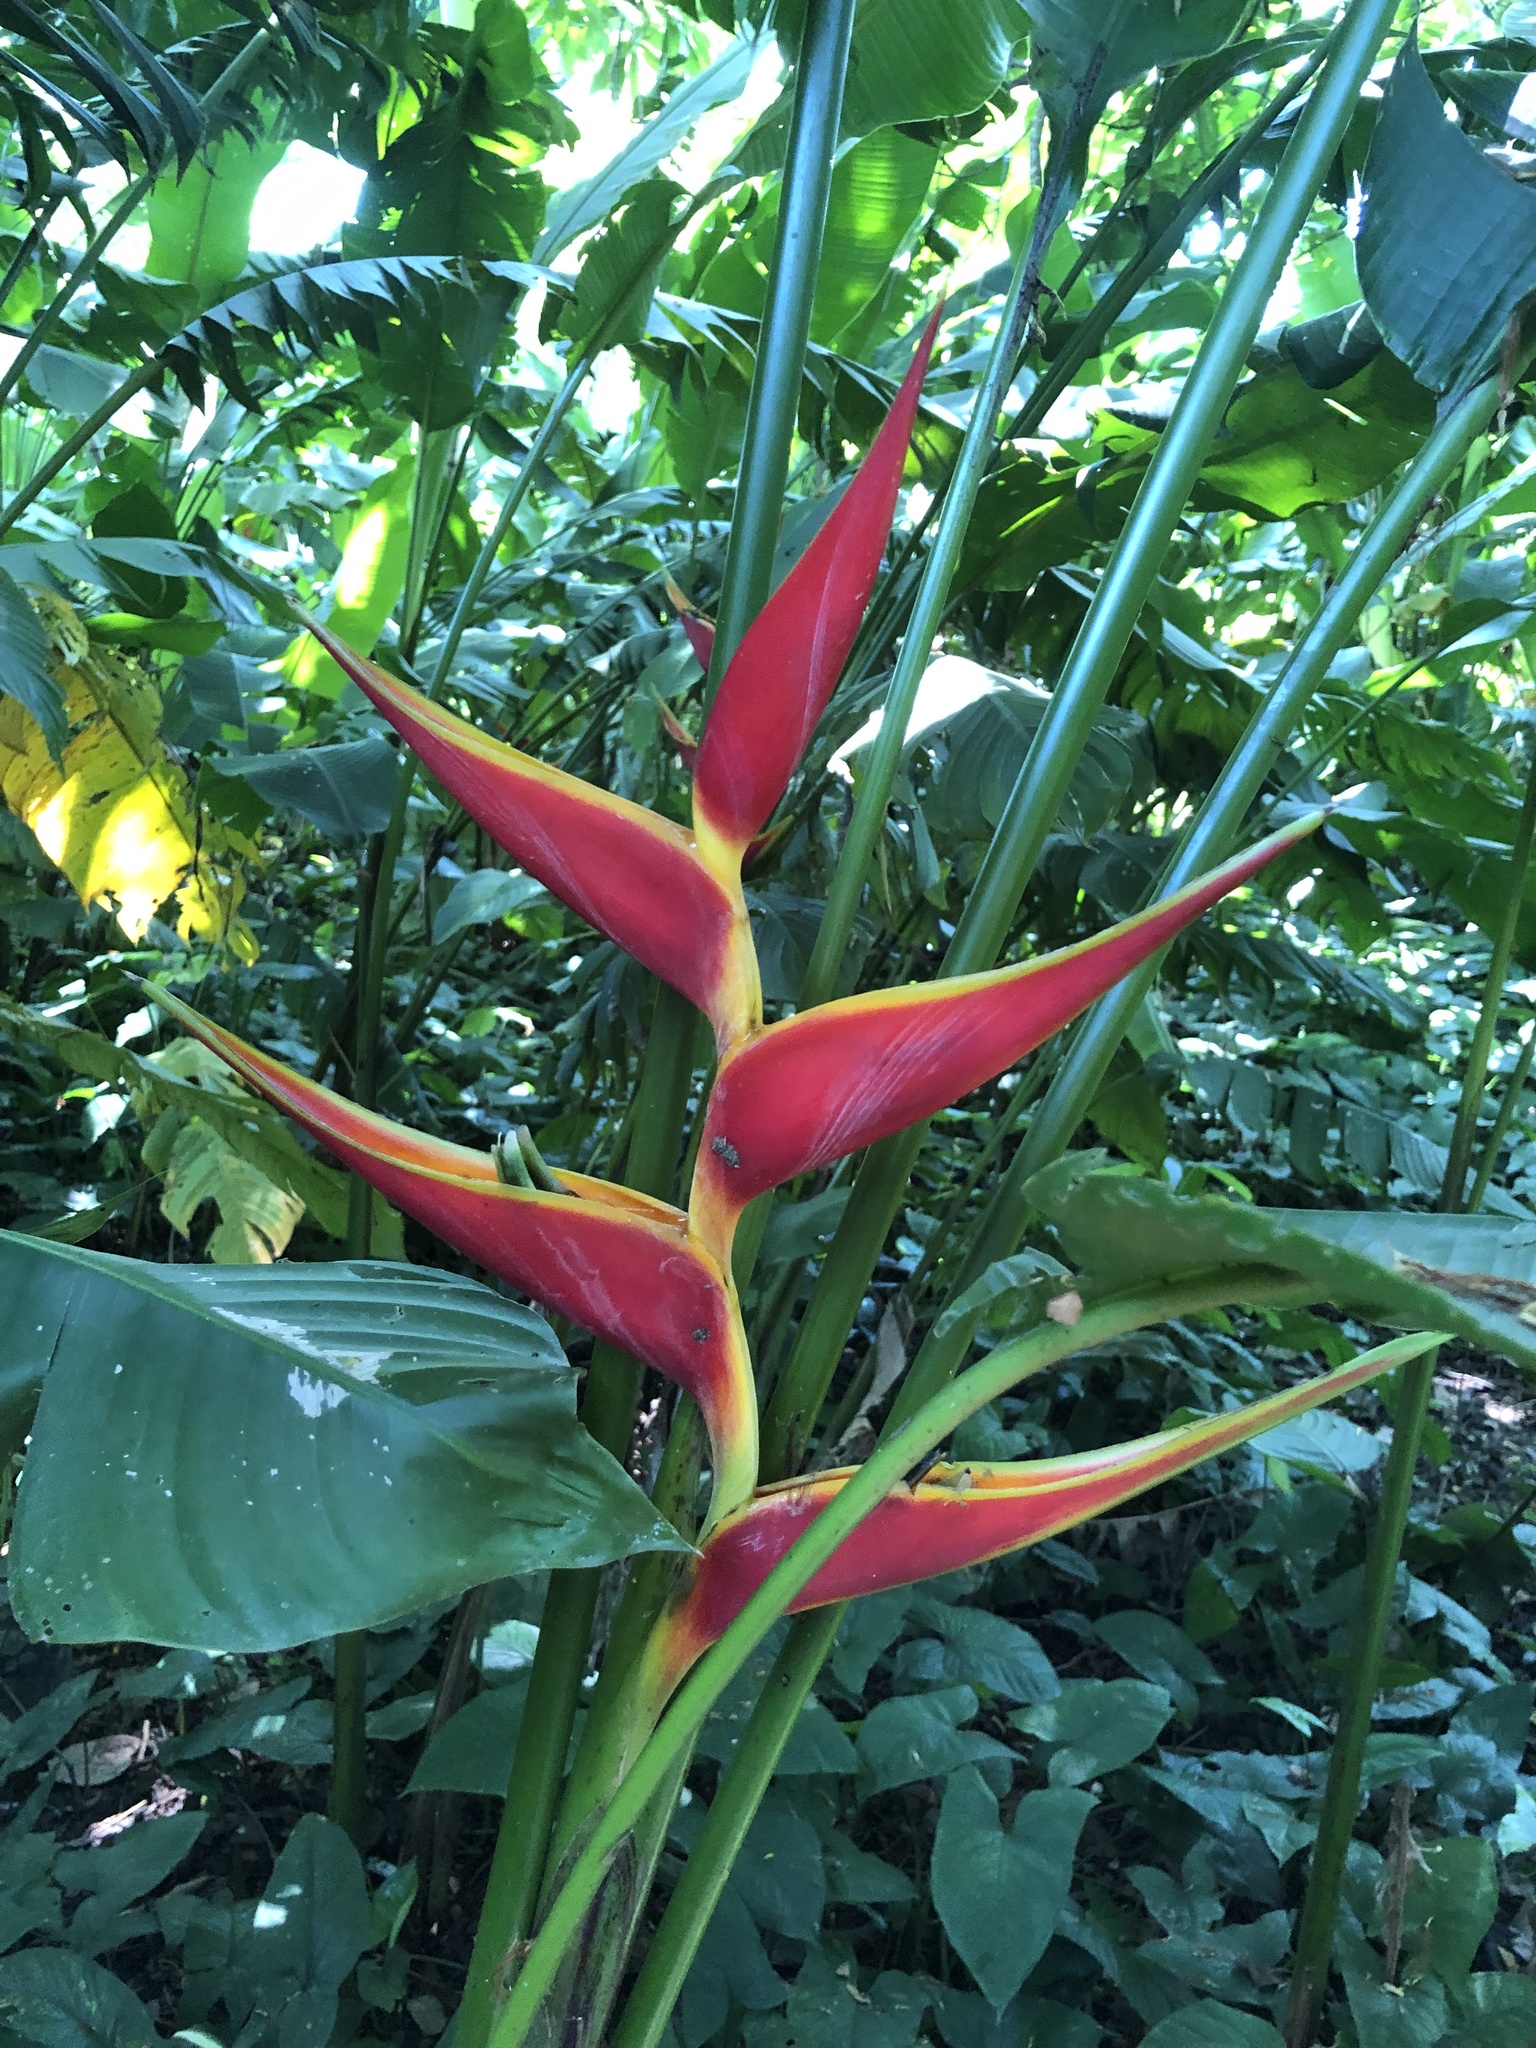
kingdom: Plantae
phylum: Tracheophyta
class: Liliopsida
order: Zingiberales
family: Heliconiaceae
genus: Heliconia
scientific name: Heliconia stricta
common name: Small lobster claw
